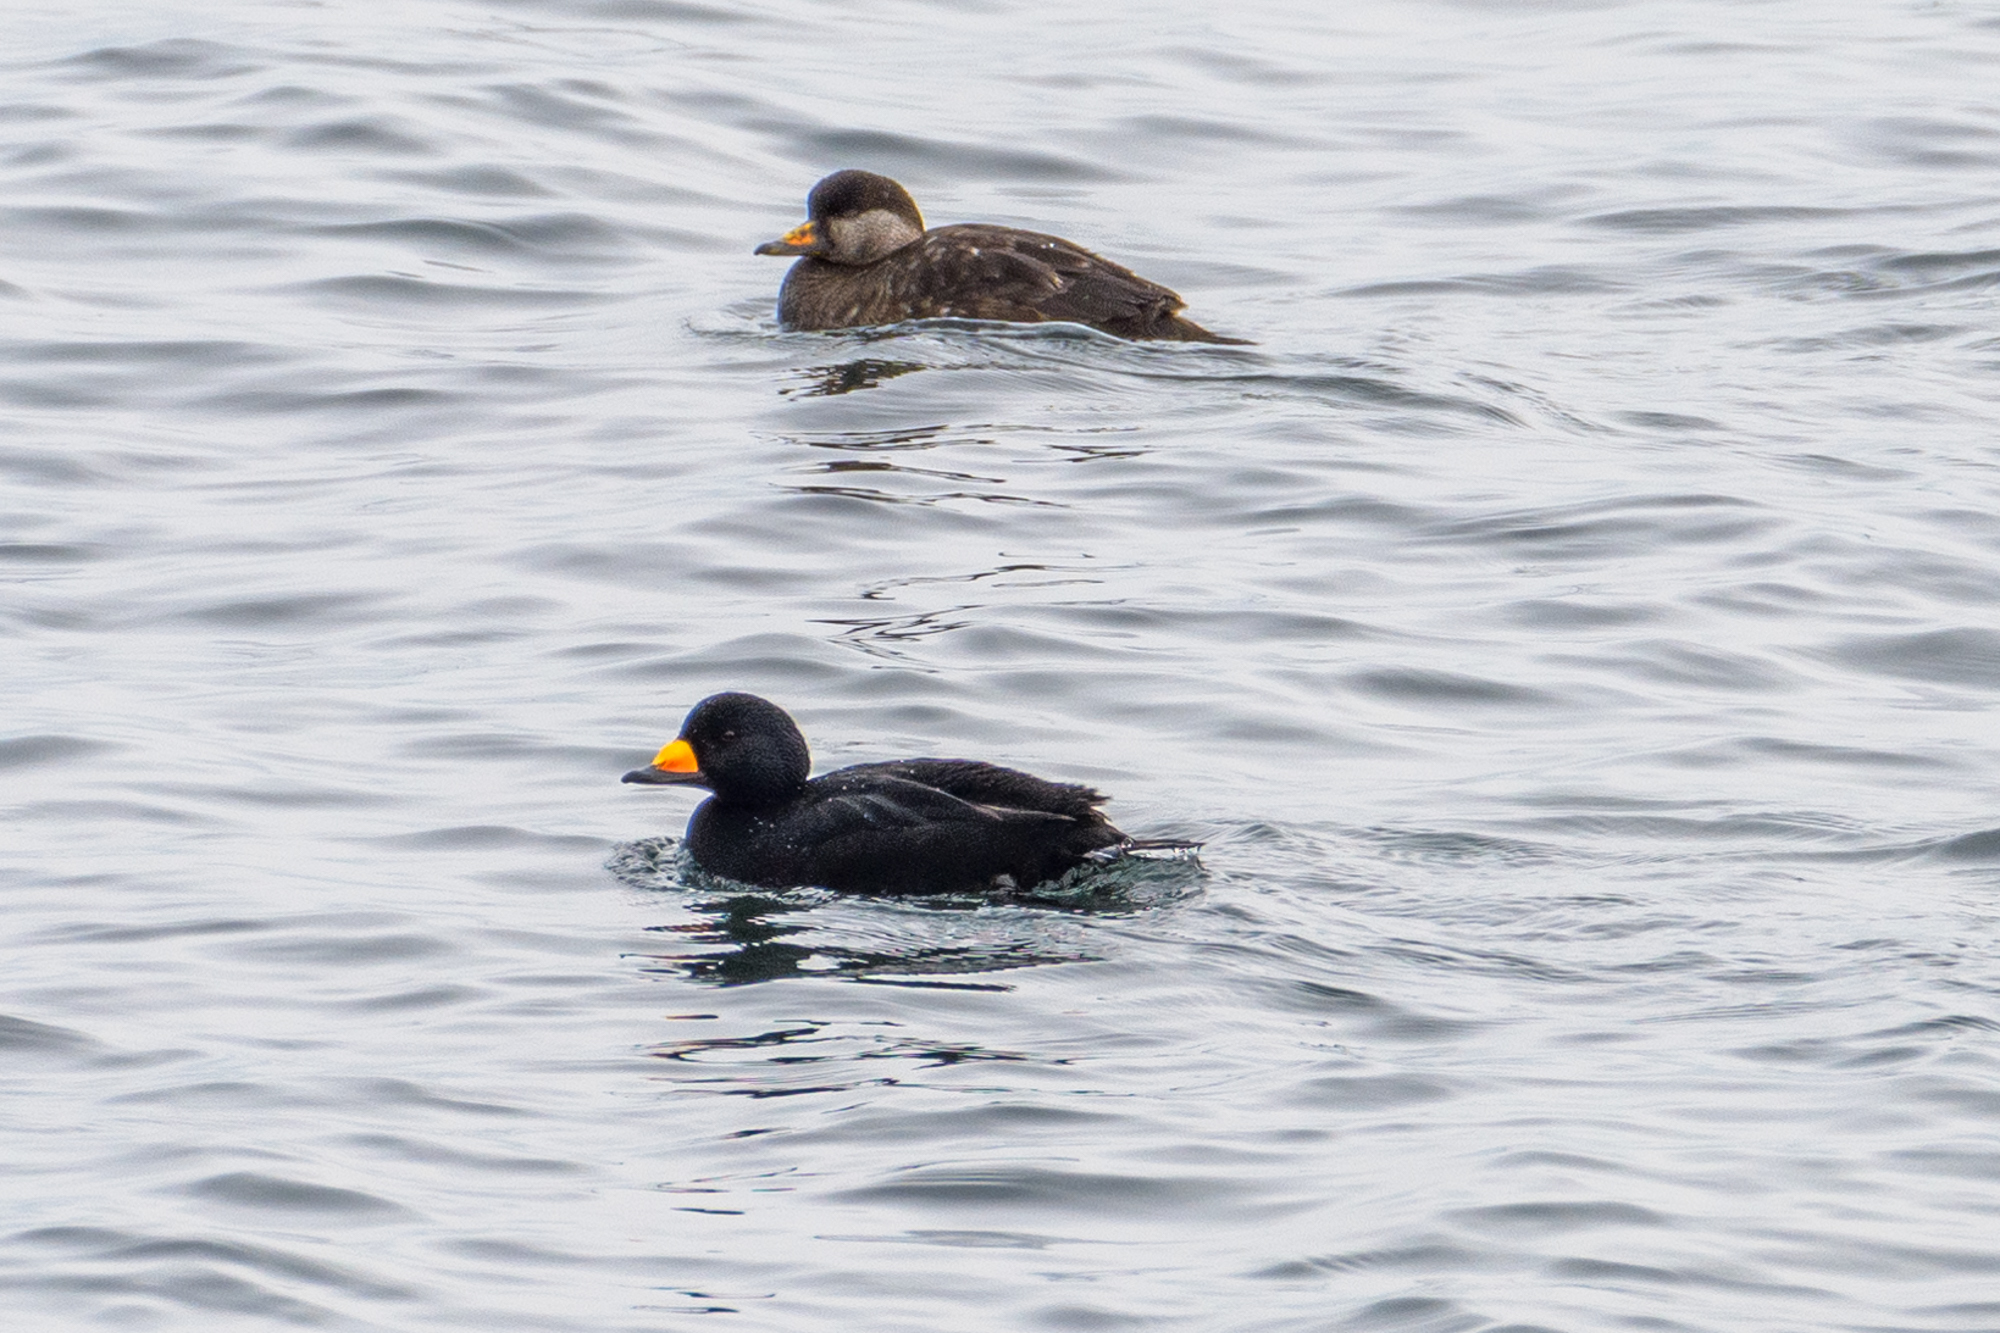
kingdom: Animalia
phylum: Chordata
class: Aves
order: Anseriformes
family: Anatidae
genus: Melanitta
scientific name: Melanitta americana
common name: Black scoter
